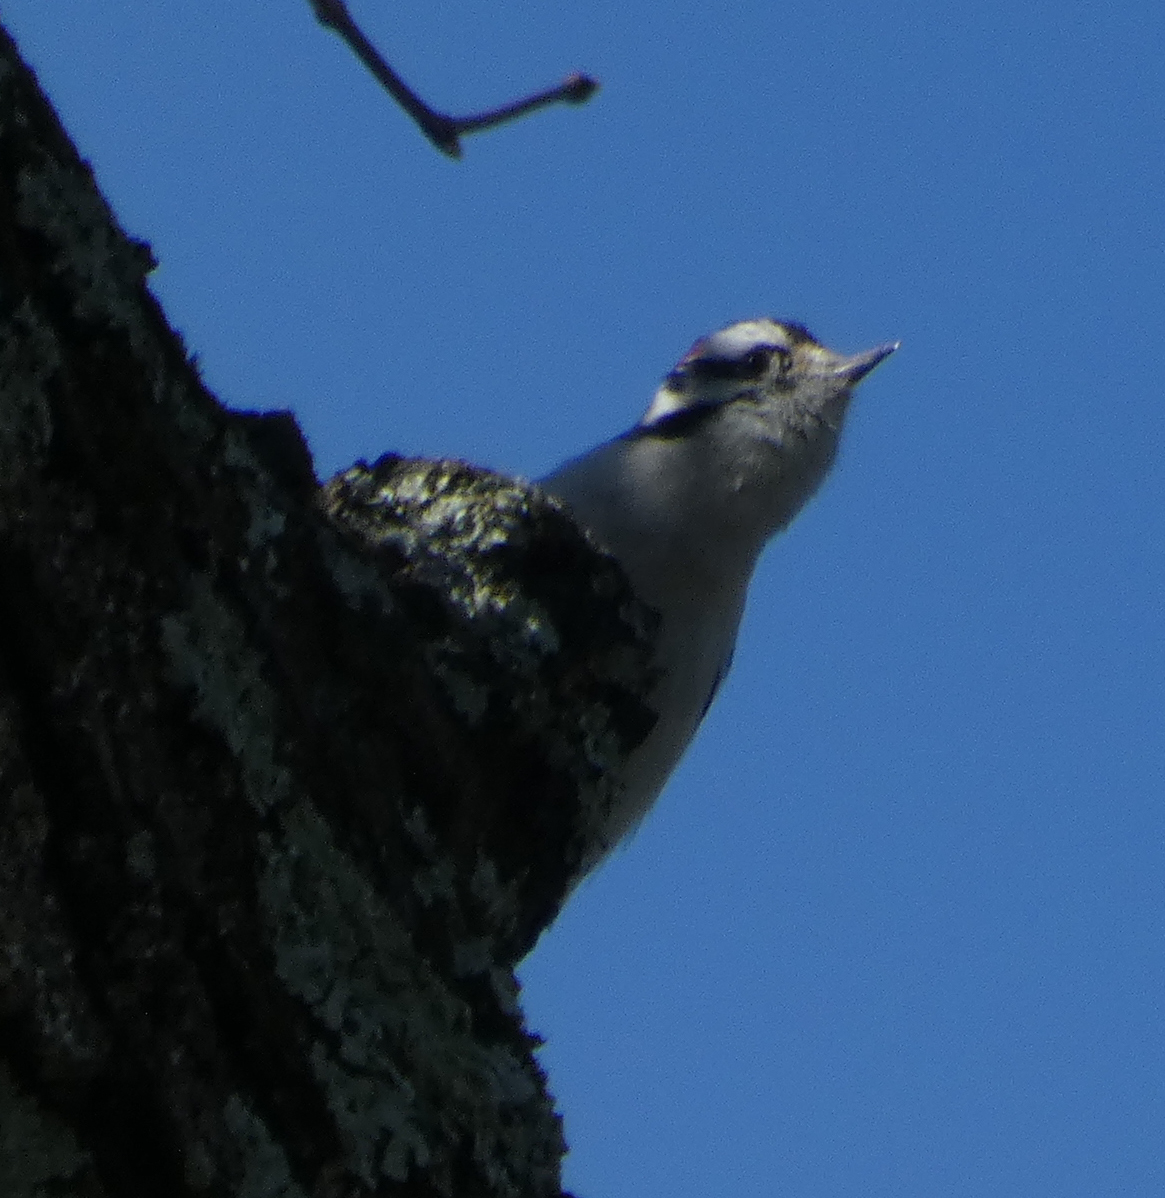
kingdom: Animalia
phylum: Chordata
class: Aves
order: Piciformes
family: Picidae
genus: Dryobates
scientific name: Dryobates pubescens
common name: Downy woodpecker
